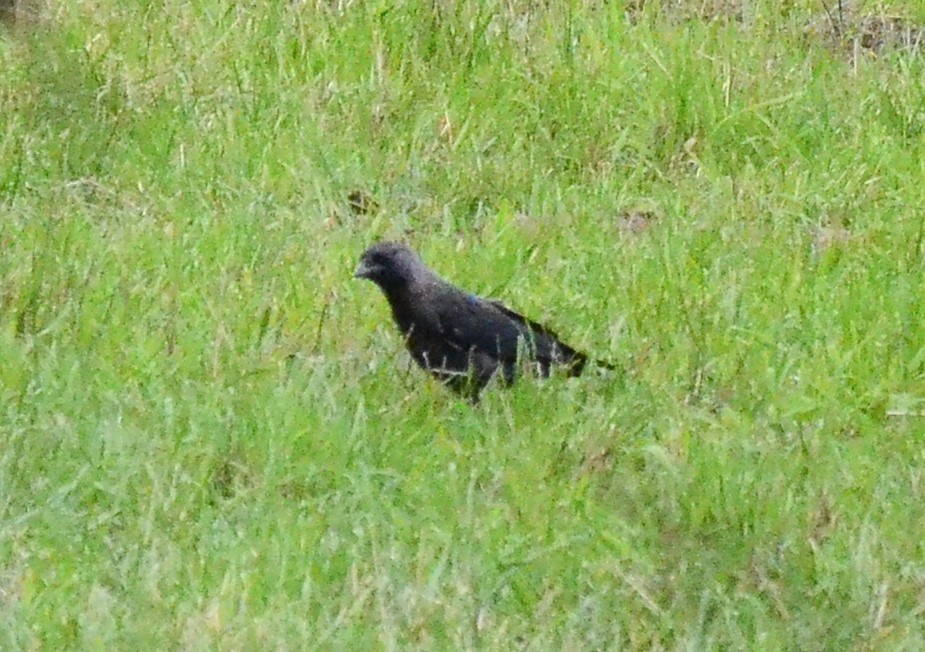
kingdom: Animalia
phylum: Chordata
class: Aves
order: Passeriformes
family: Corvidae
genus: Coloeus
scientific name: Coloeus monedula
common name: Western jackdaw
